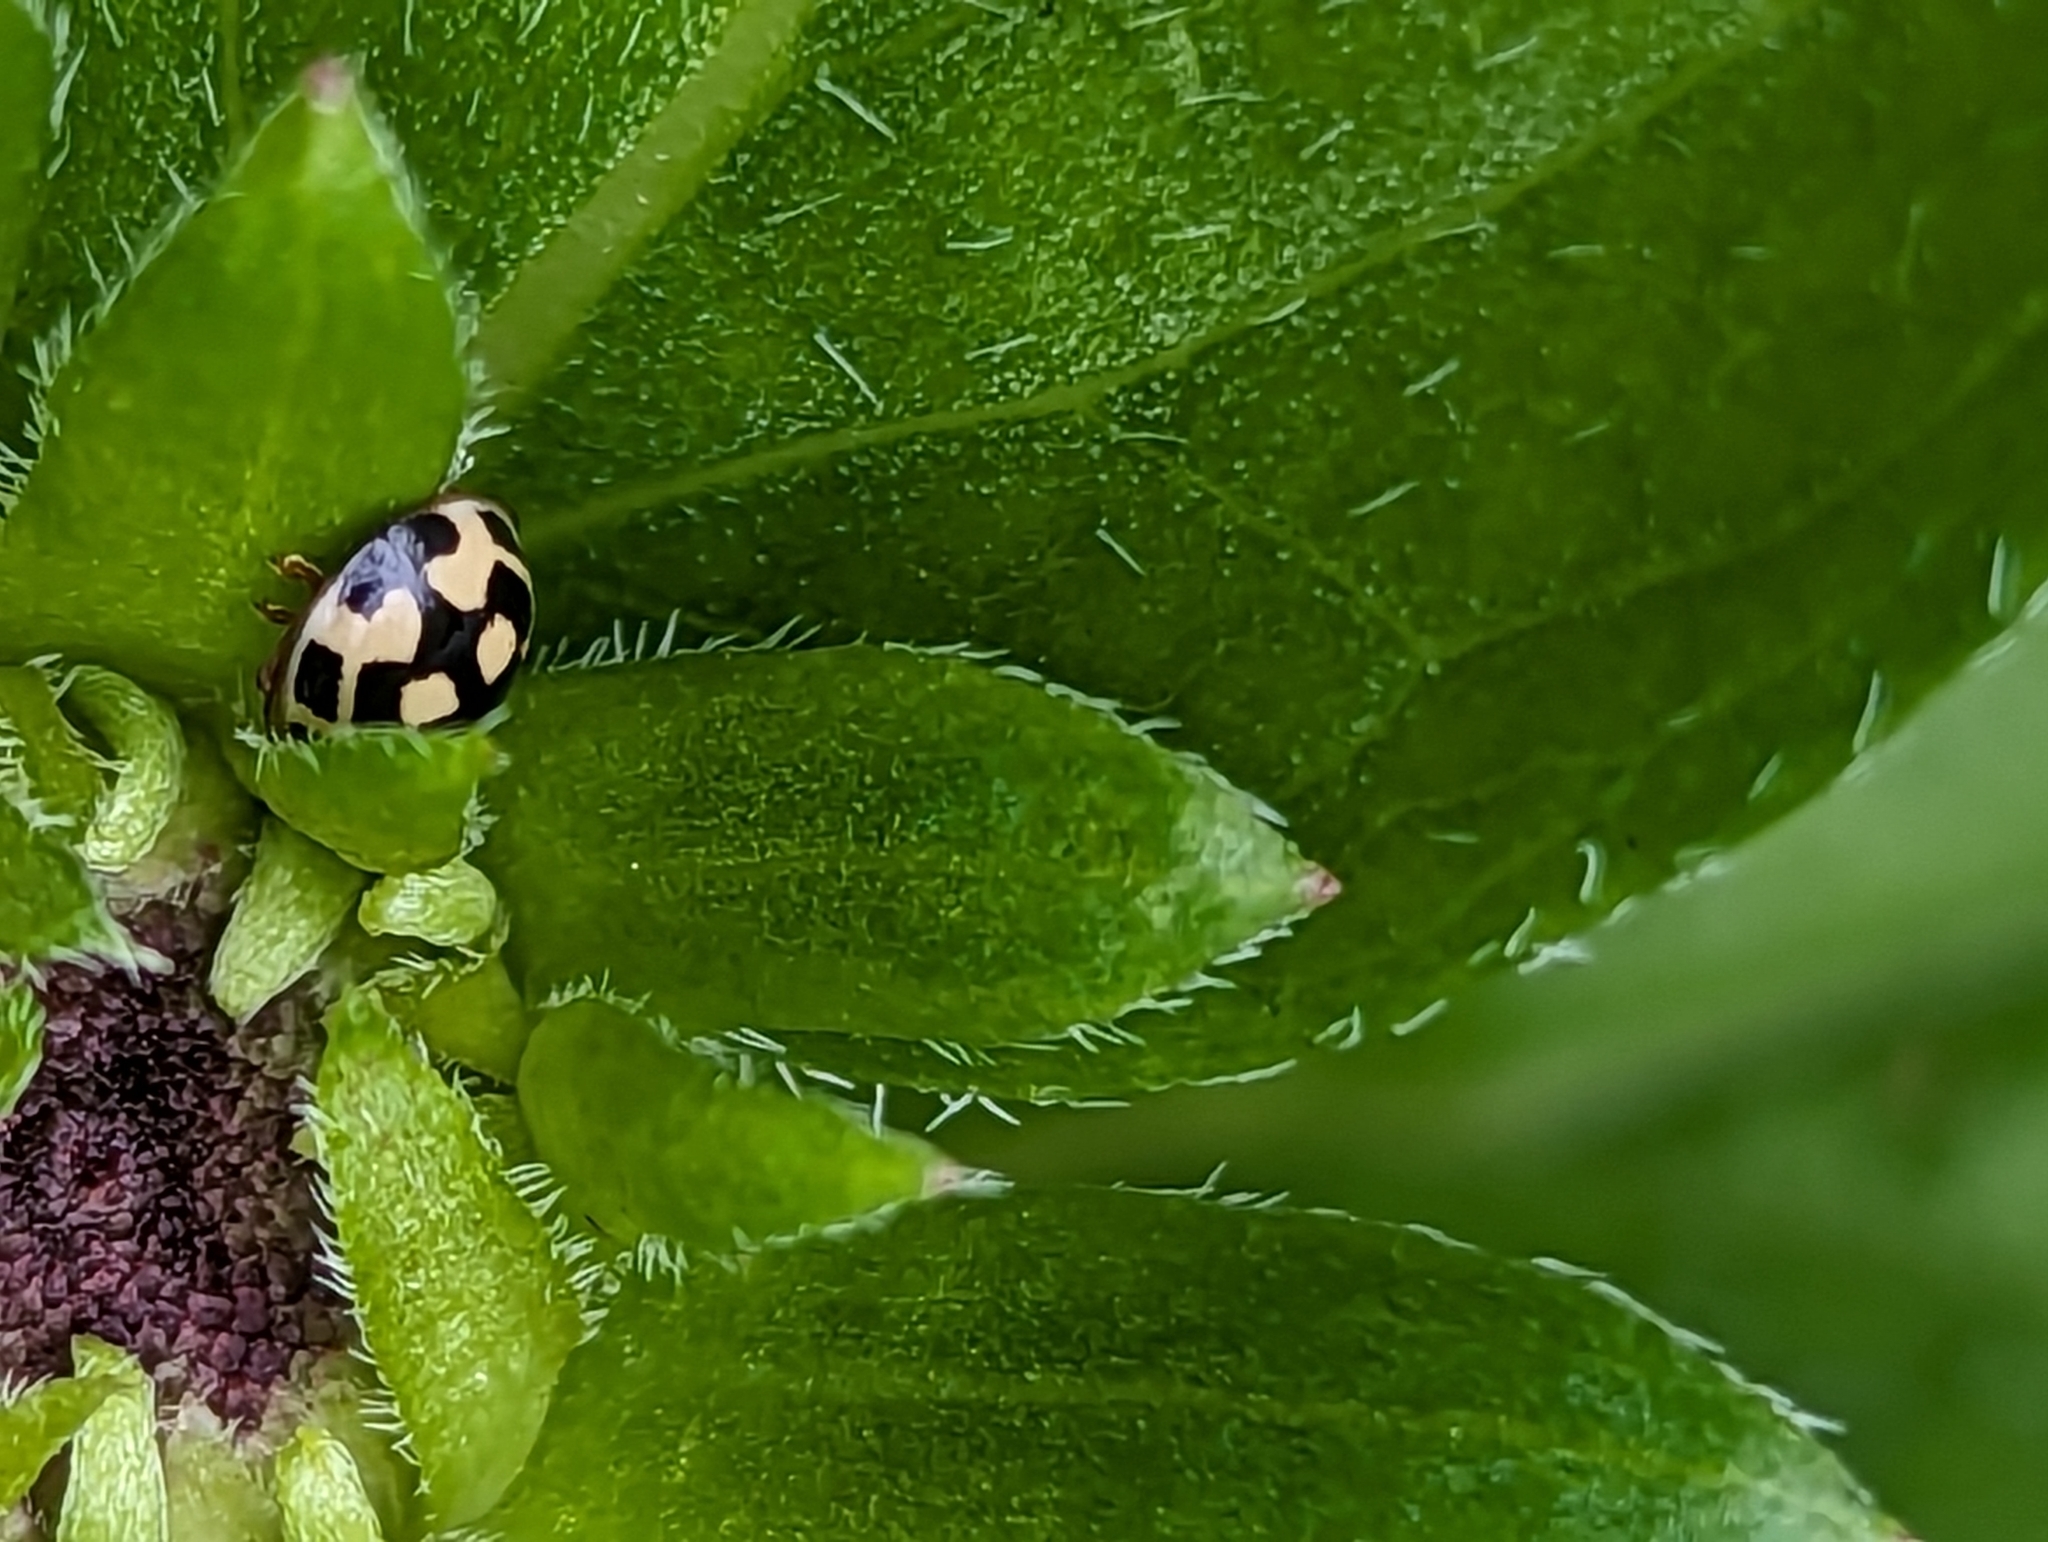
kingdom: Animalia
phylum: Arthropoda
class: Insecta
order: Coleoptera
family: Coccinellidae
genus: Propylaea
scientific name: Propylaea quatuordecimpunctata
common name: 14-spotted ladybird beetle
